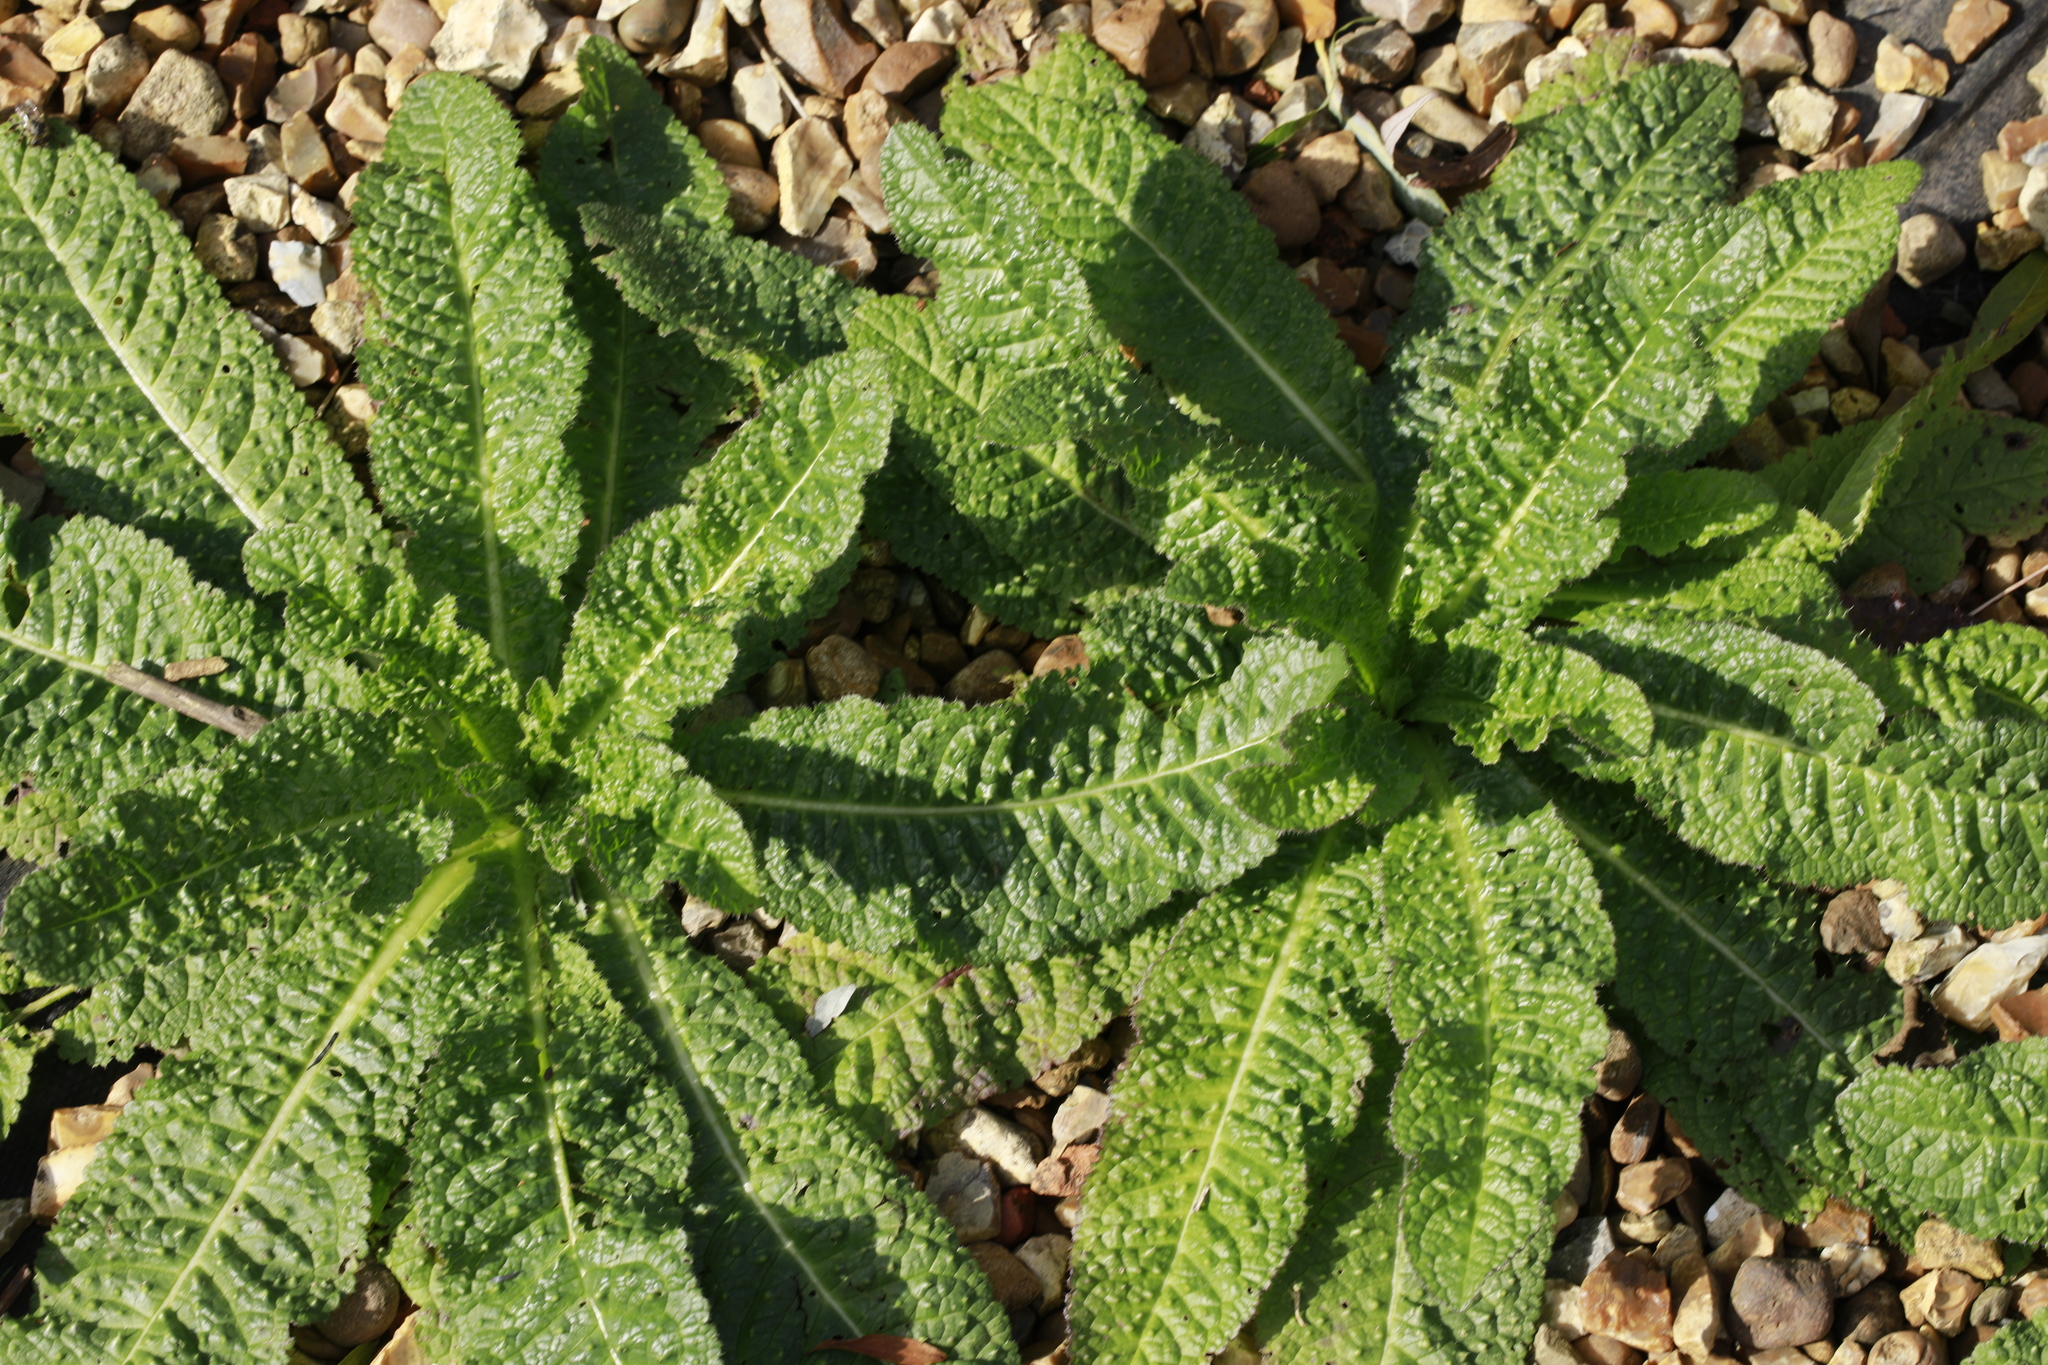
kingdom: Plantae
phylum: Tracheophyta
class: Magnoliopsida
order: Dipsacales
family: Caprifoliaceae
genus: Dipsacus
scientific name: Dipsacus fullonum
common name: Teasel
